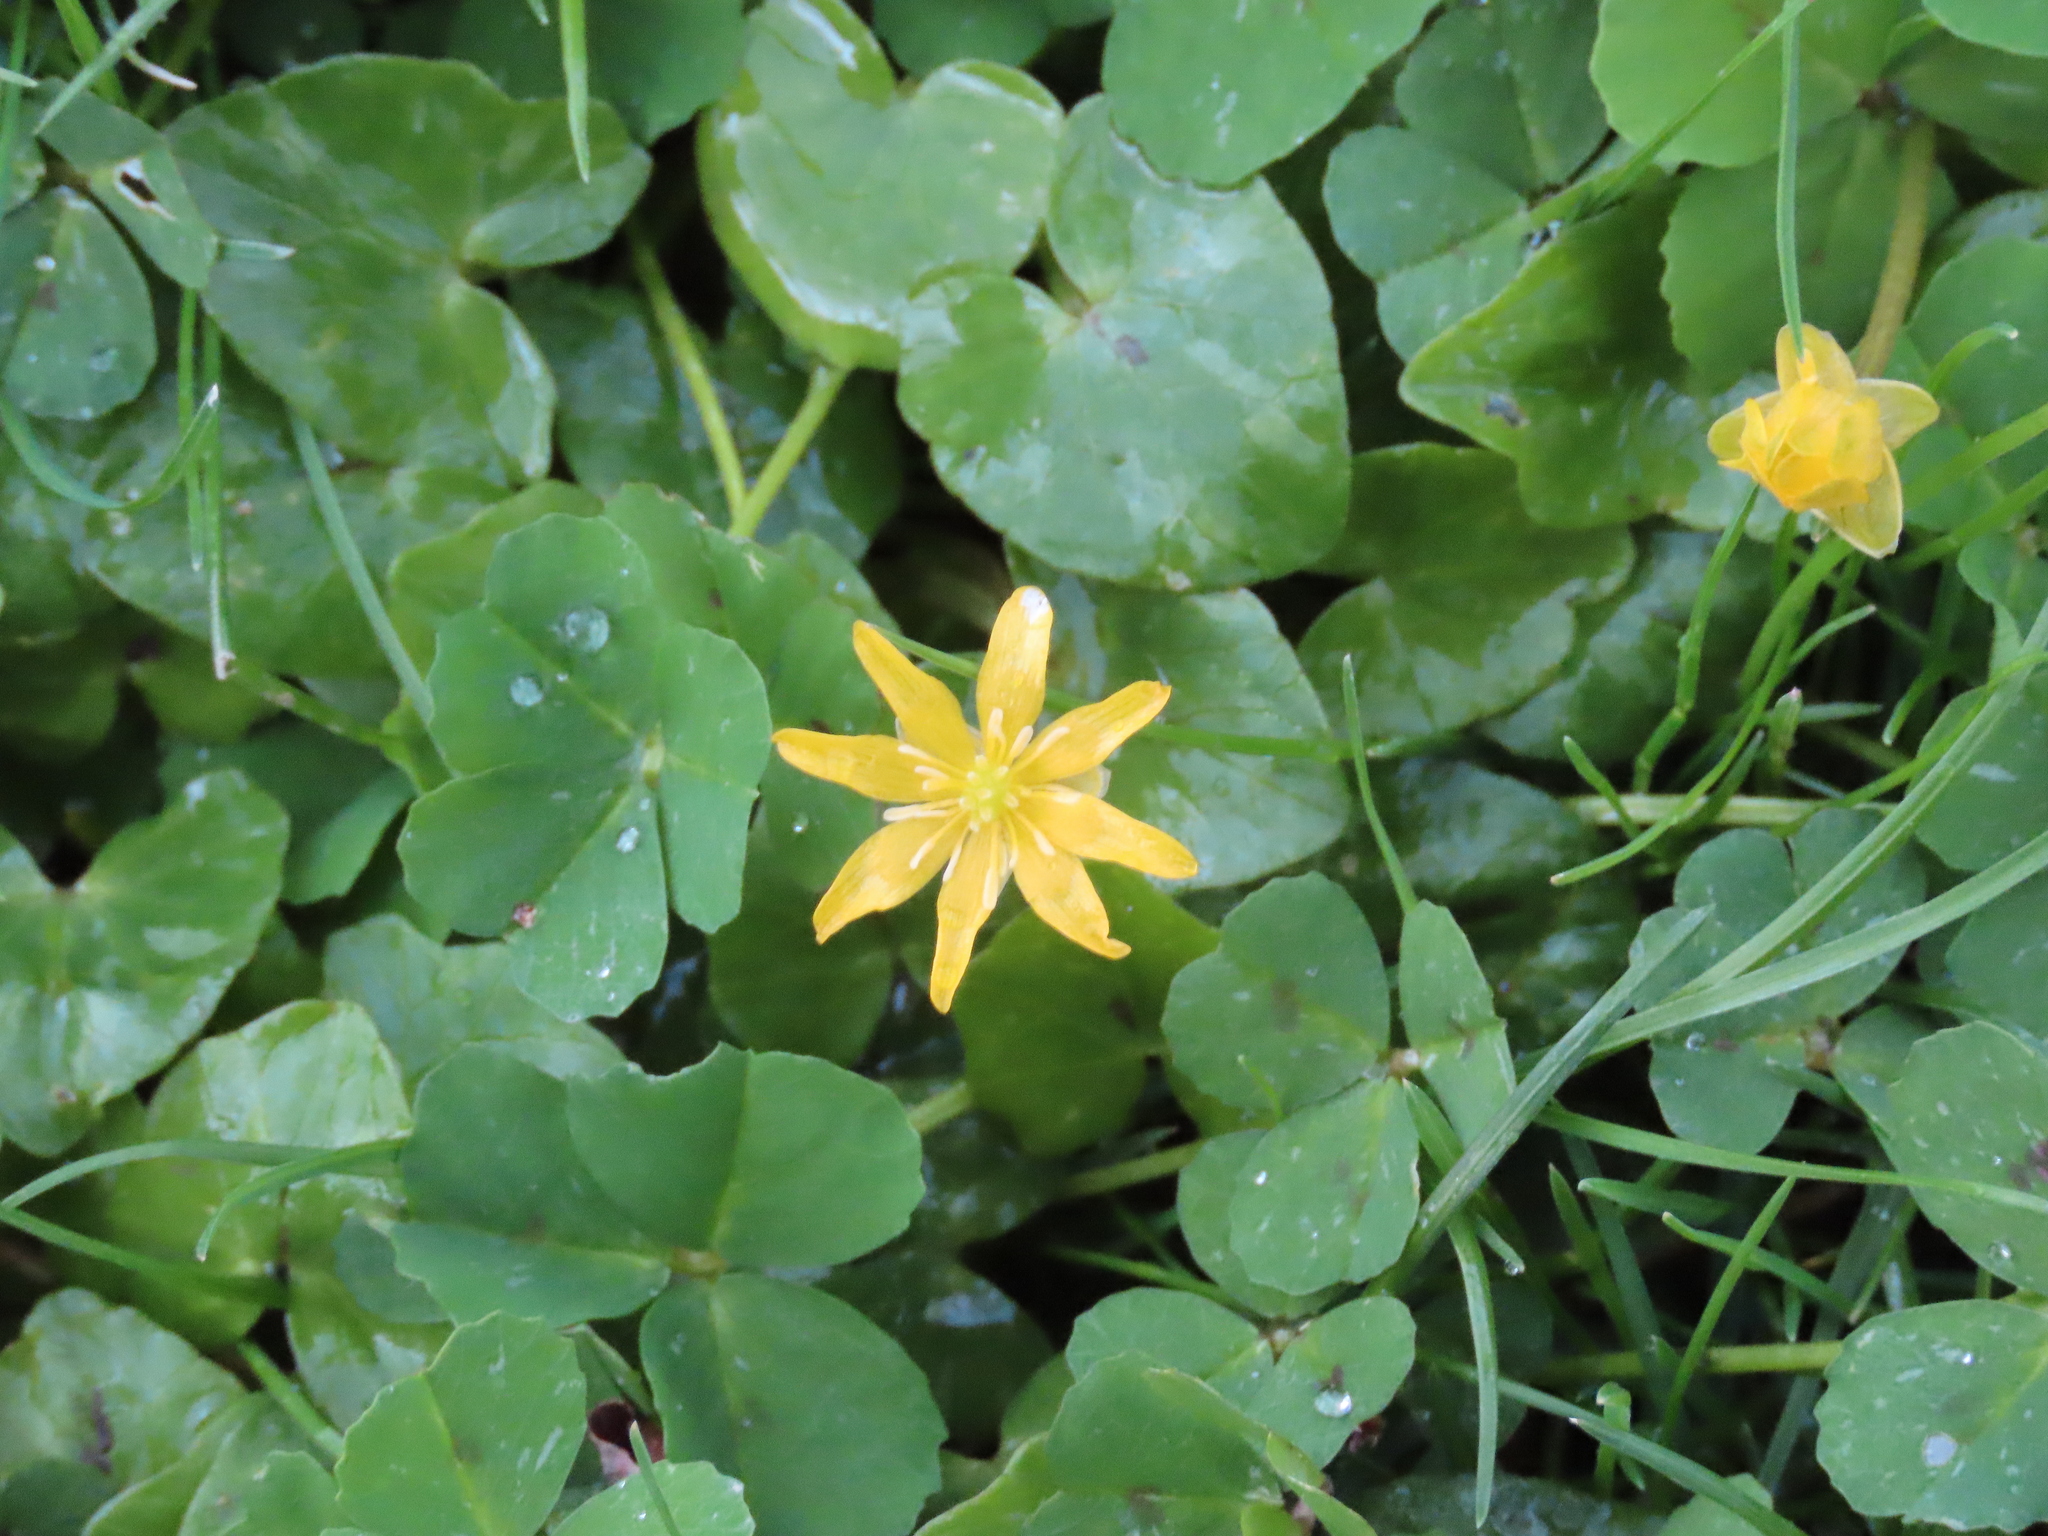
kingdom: Plantae
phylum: Tracheophyta
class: Magnoliopsida
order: Ranunculales
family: Ranunculaceae
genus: Ficaria
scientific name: Ficaria verna
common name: Lesser celandine
